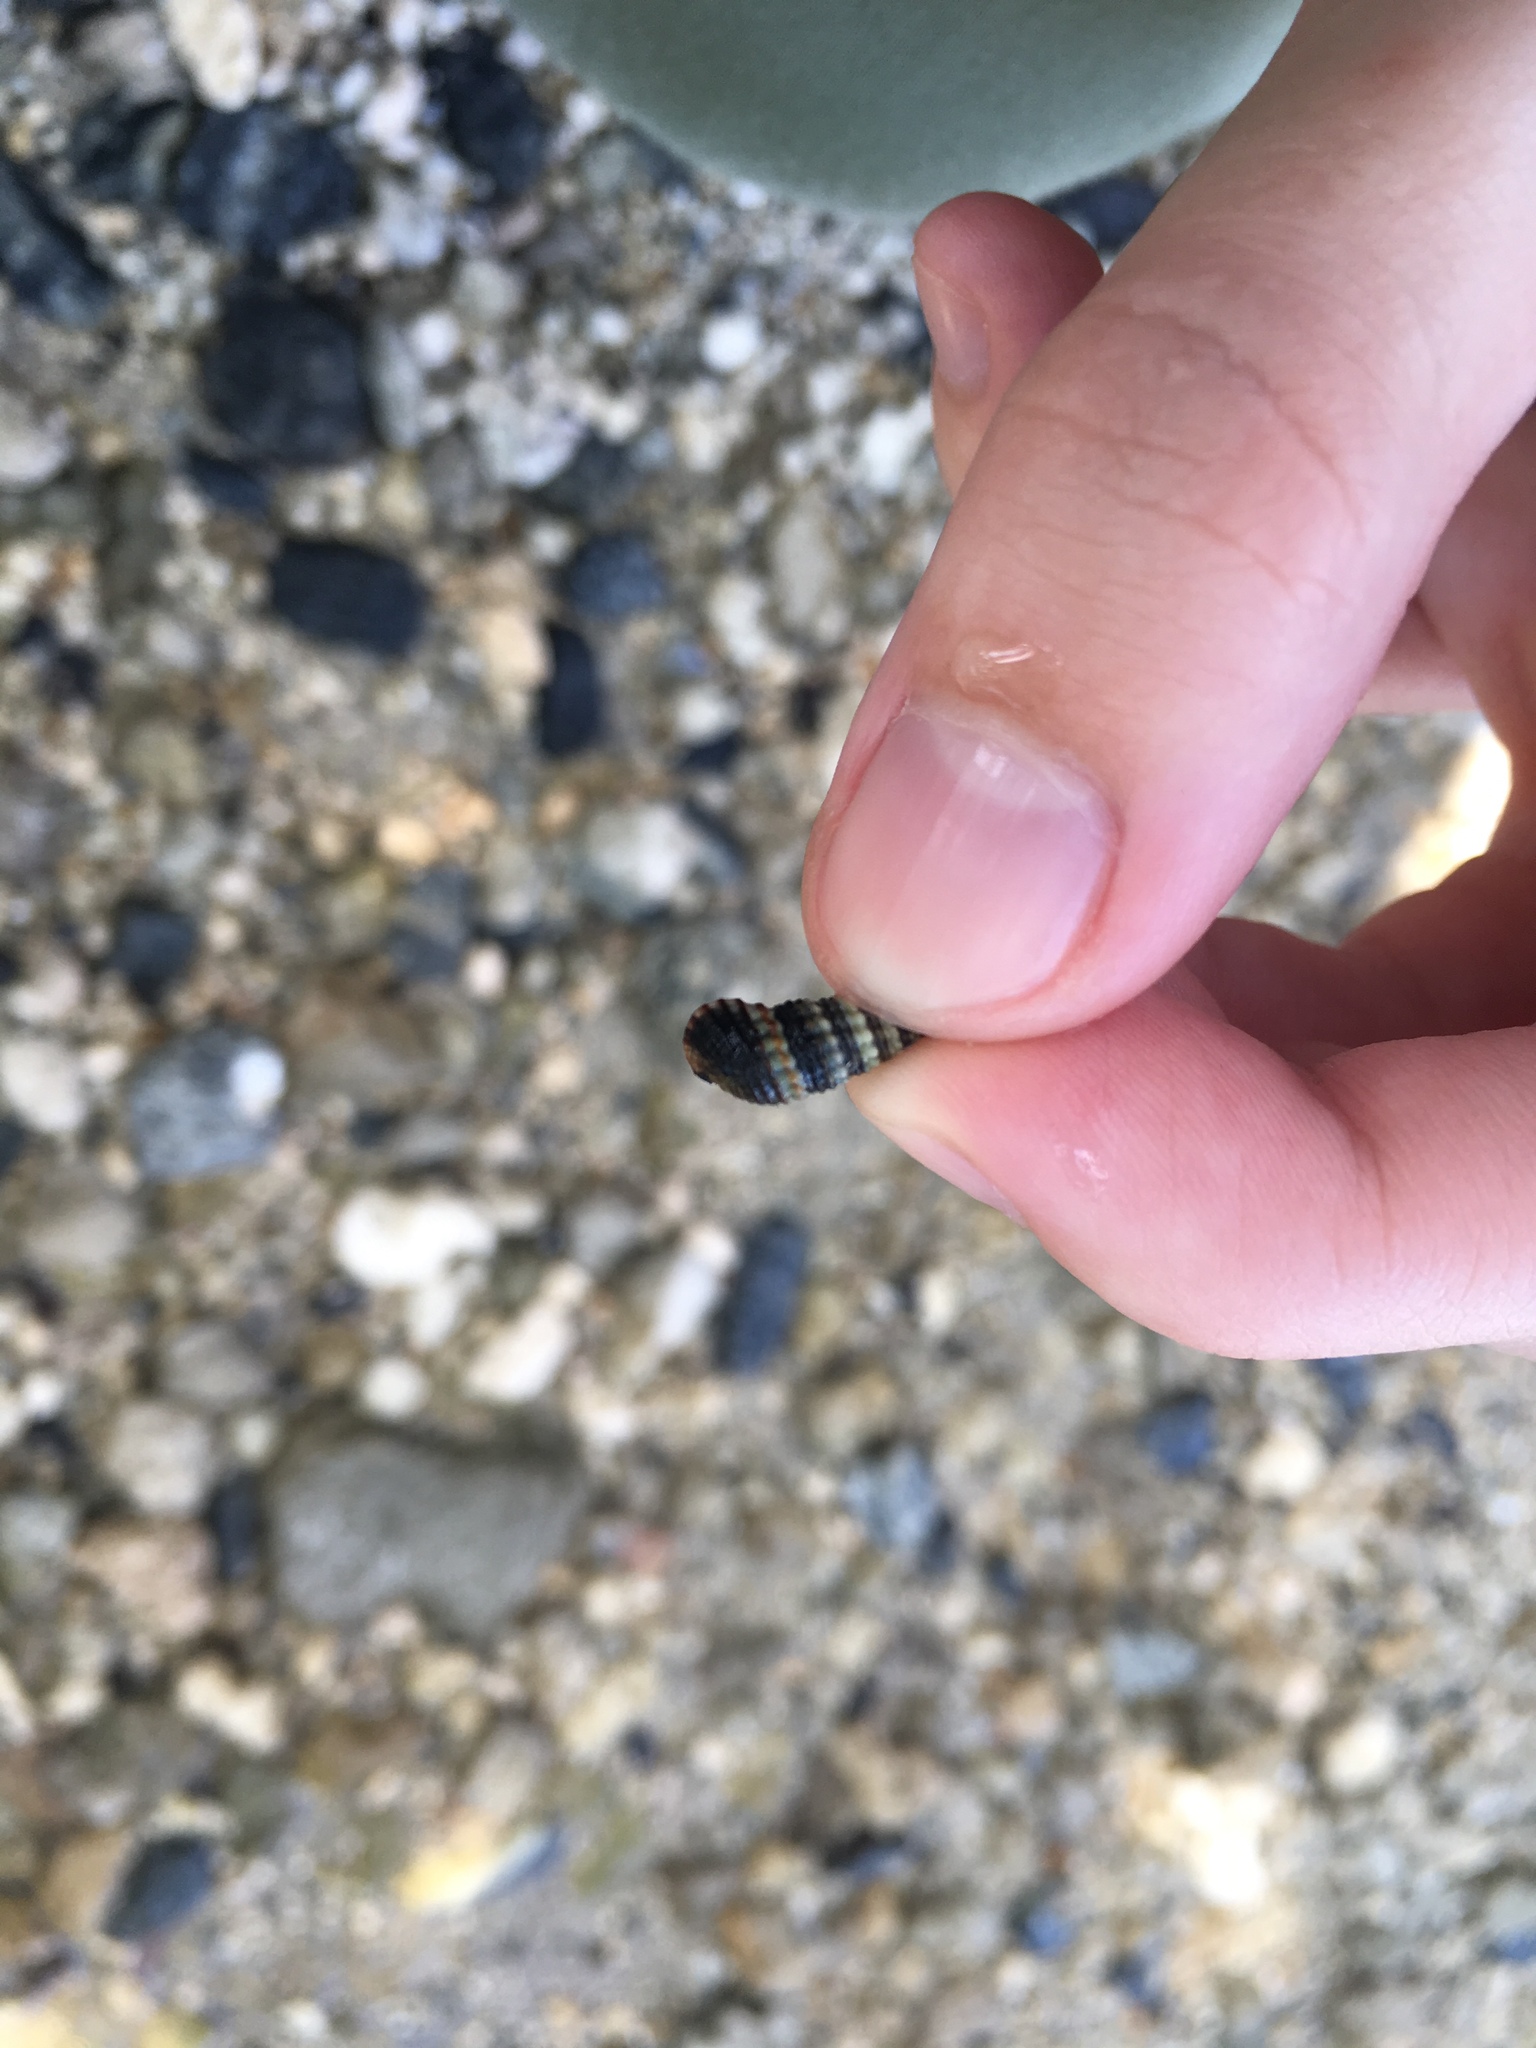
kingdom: Animalia
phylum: Mollusca
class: Gastropoda
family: Batillariidae
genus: Lampanella
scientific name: Lampanella minima
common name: West indian false cerith
